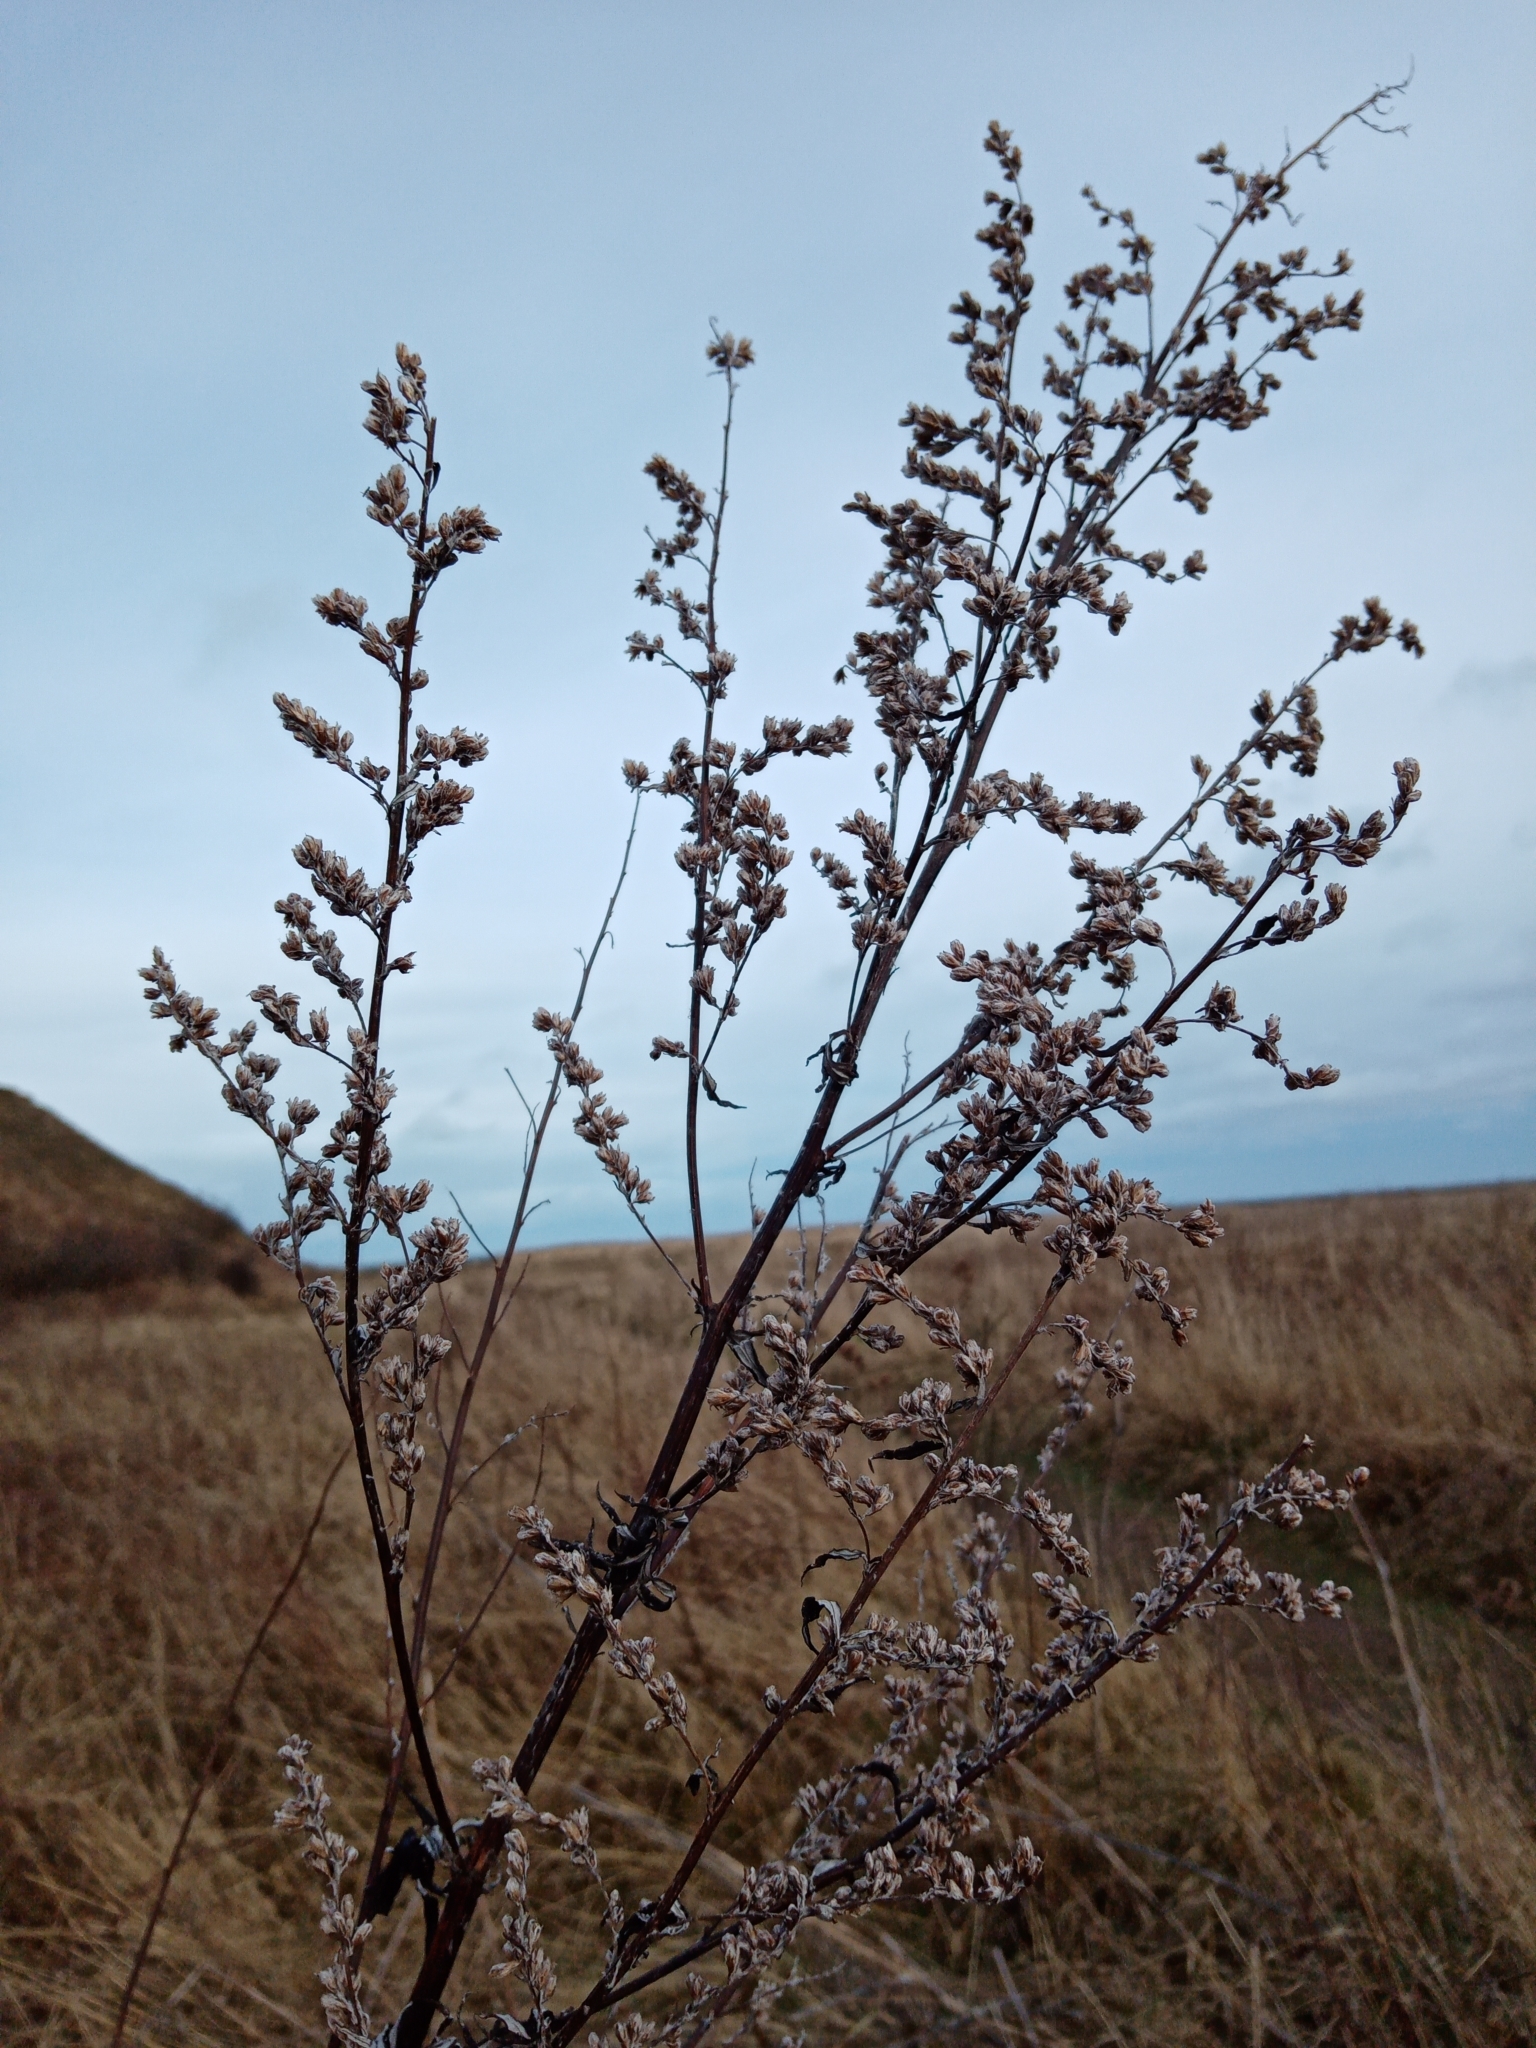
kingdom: Plantae
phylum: Tracheophyta
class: Magnoliopsida
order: Asterales
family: Asteraceae
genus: Artemisia
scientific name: Artemisia vulgaris
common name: Mugwort
